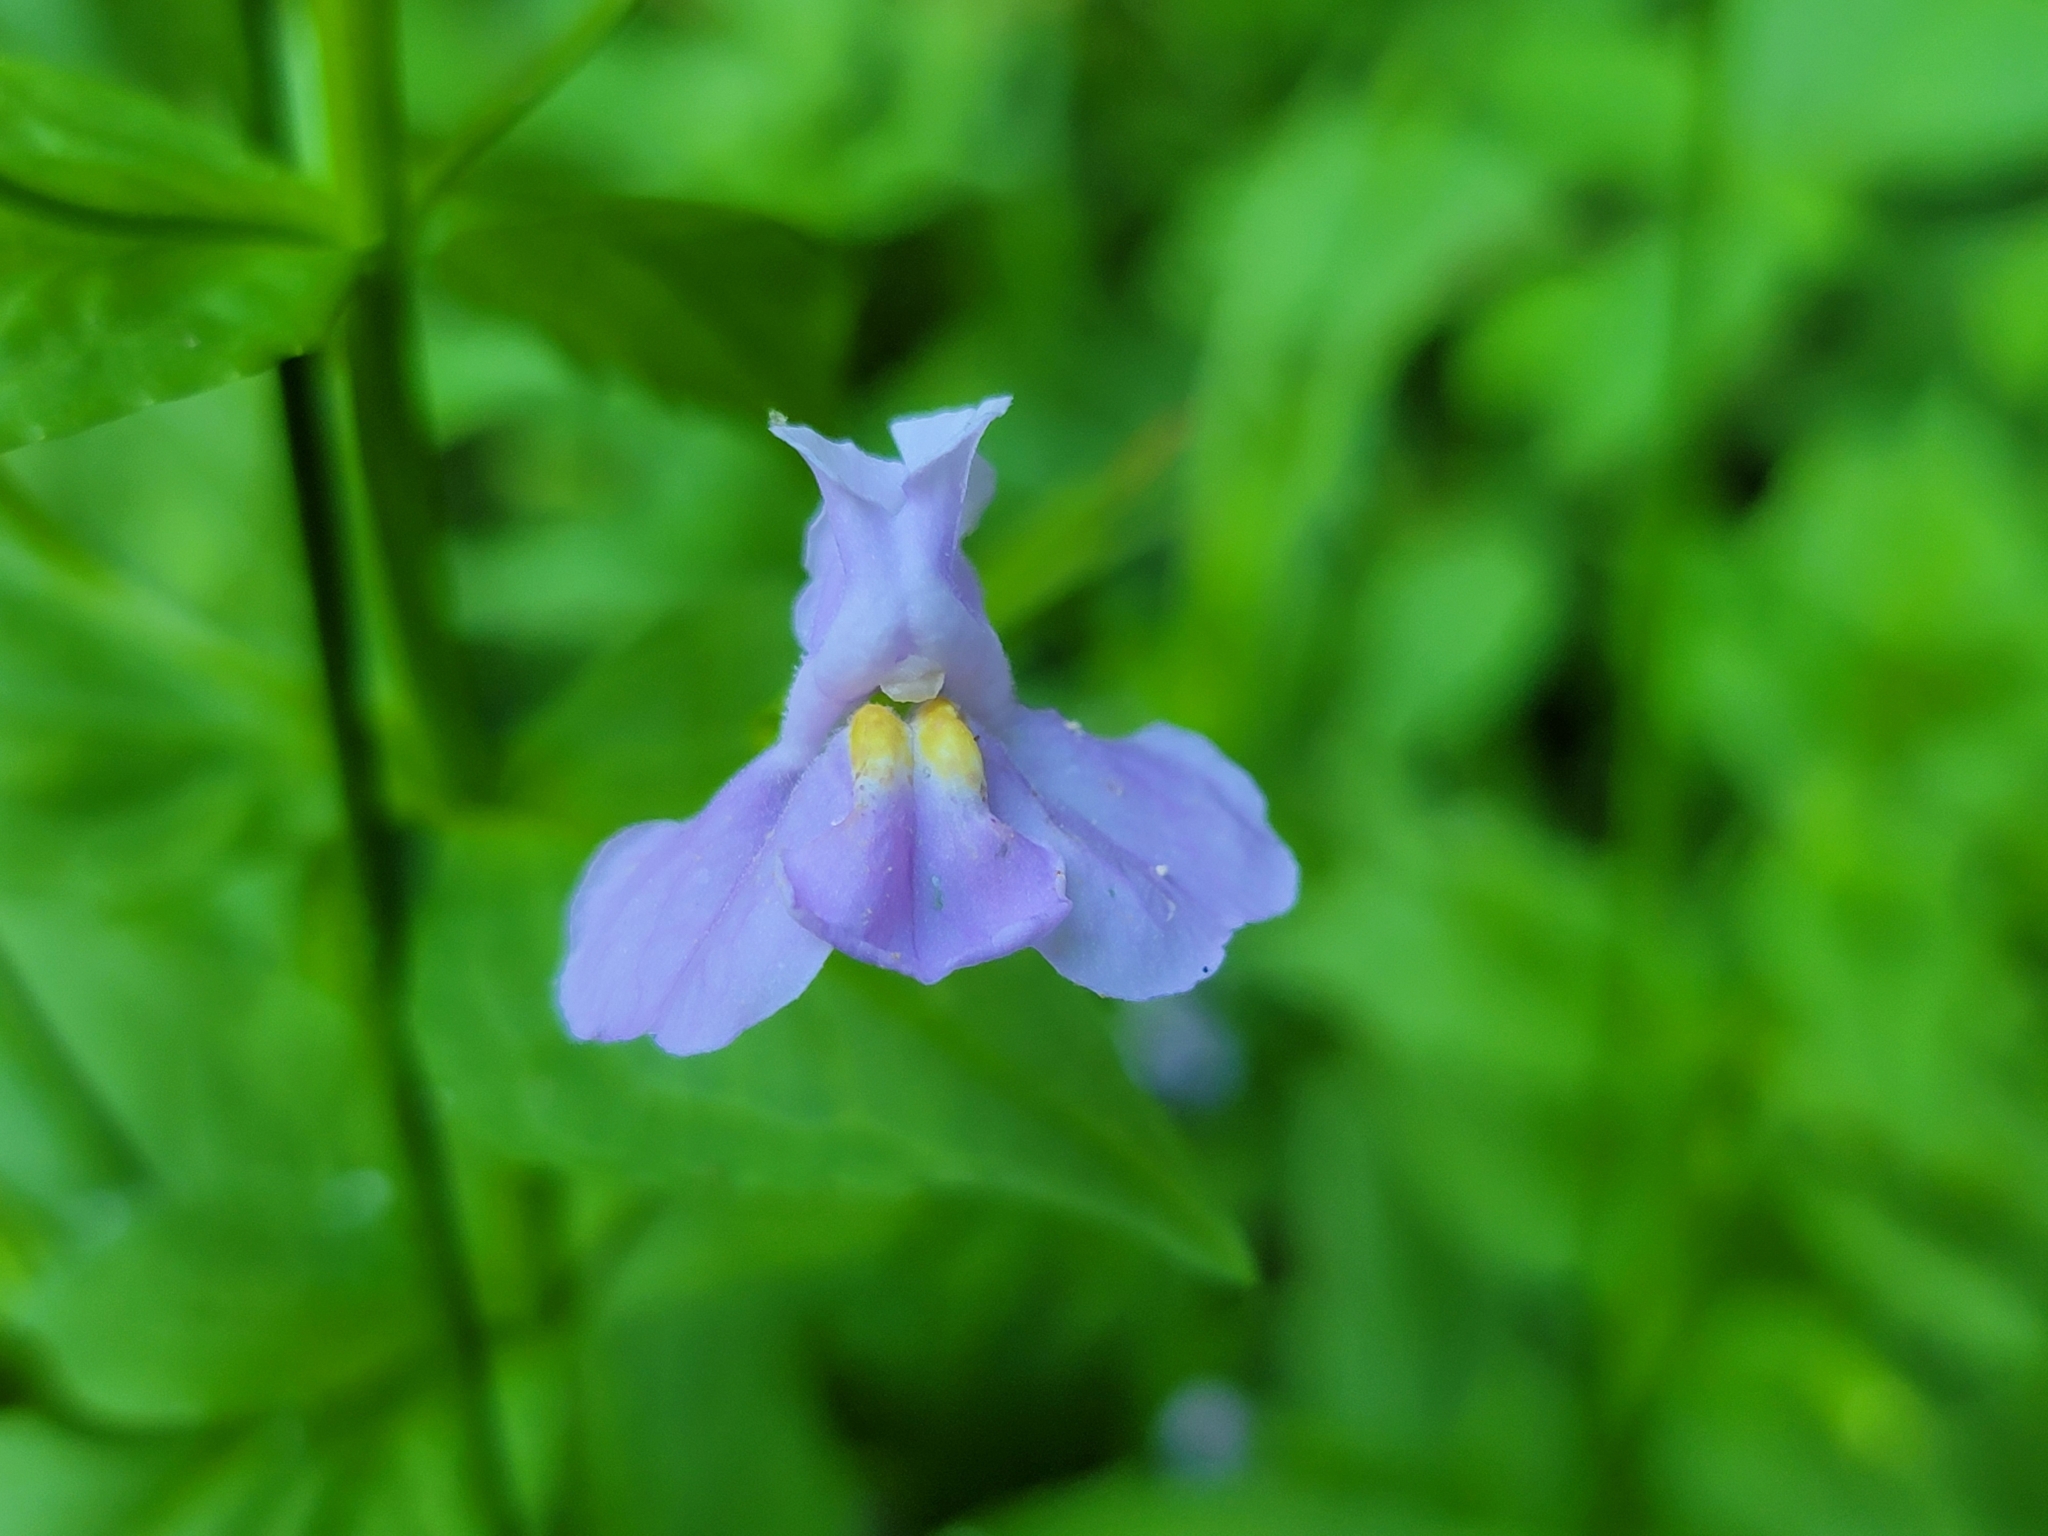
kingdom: Plantae
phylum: Tracheophyta
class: Magnoliopsida
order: Lamiales
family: Phrymaceae
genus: Mimulus
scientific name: Mimulus ringens
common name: Allegheny monkeyflower
